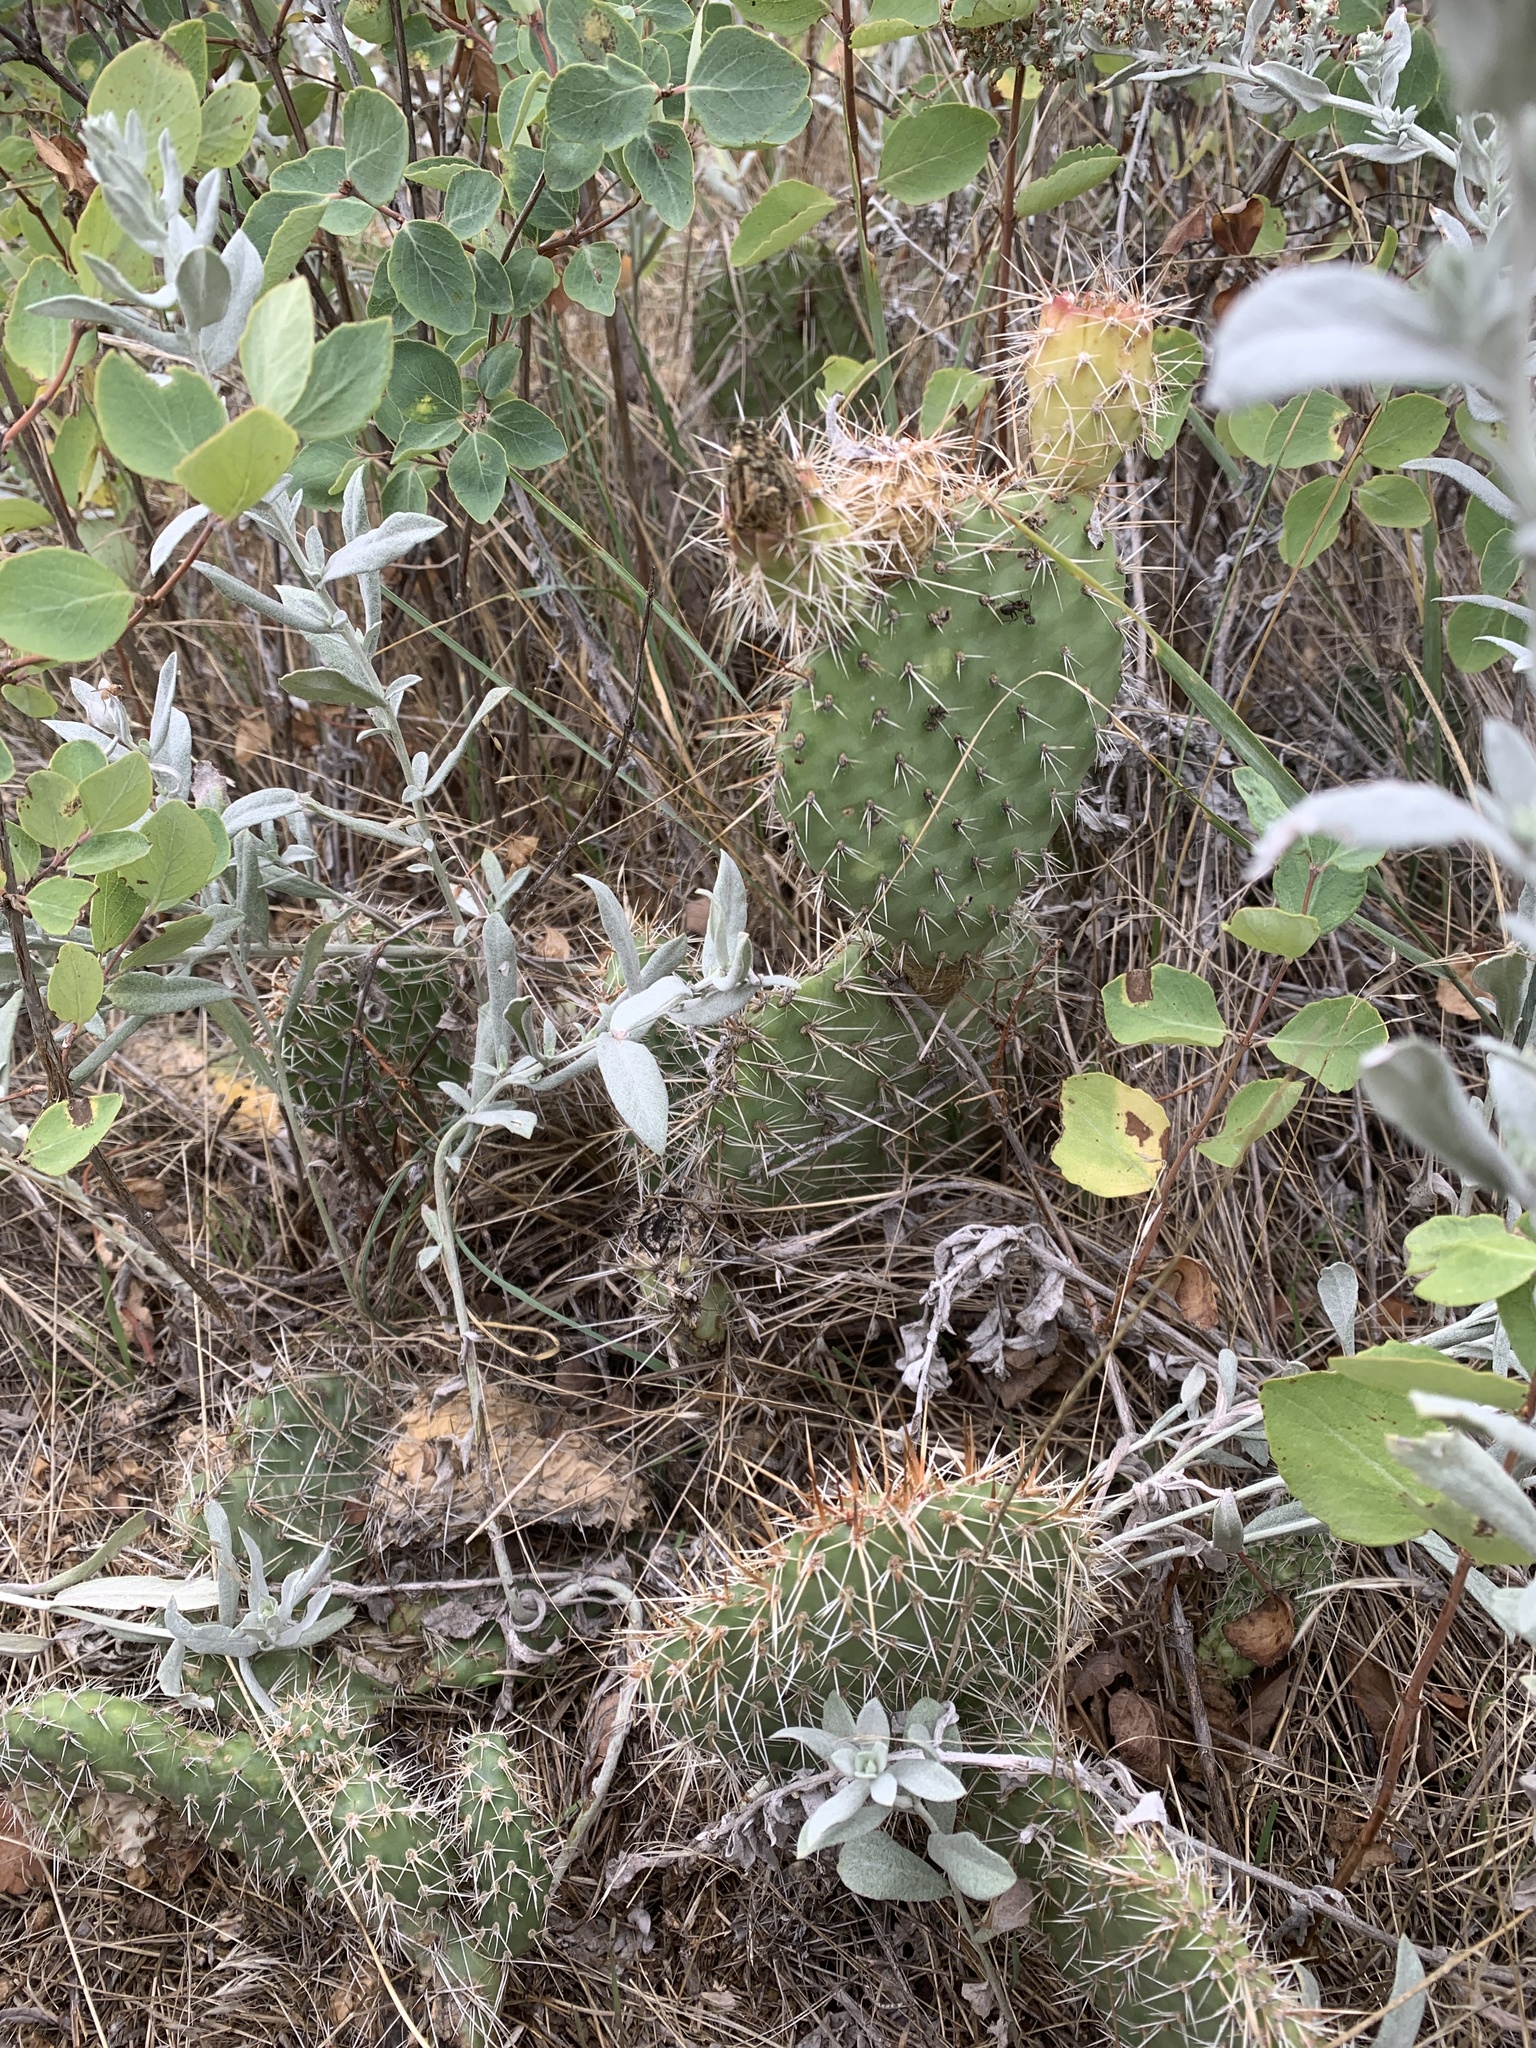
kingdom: Plantae
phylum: Tracheophyta
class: Magnoliopsida
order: Caryophyllales
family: Cactaceae
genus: Opuntia
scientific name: Opuntia polyacantha
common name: Plains prickly-pear
